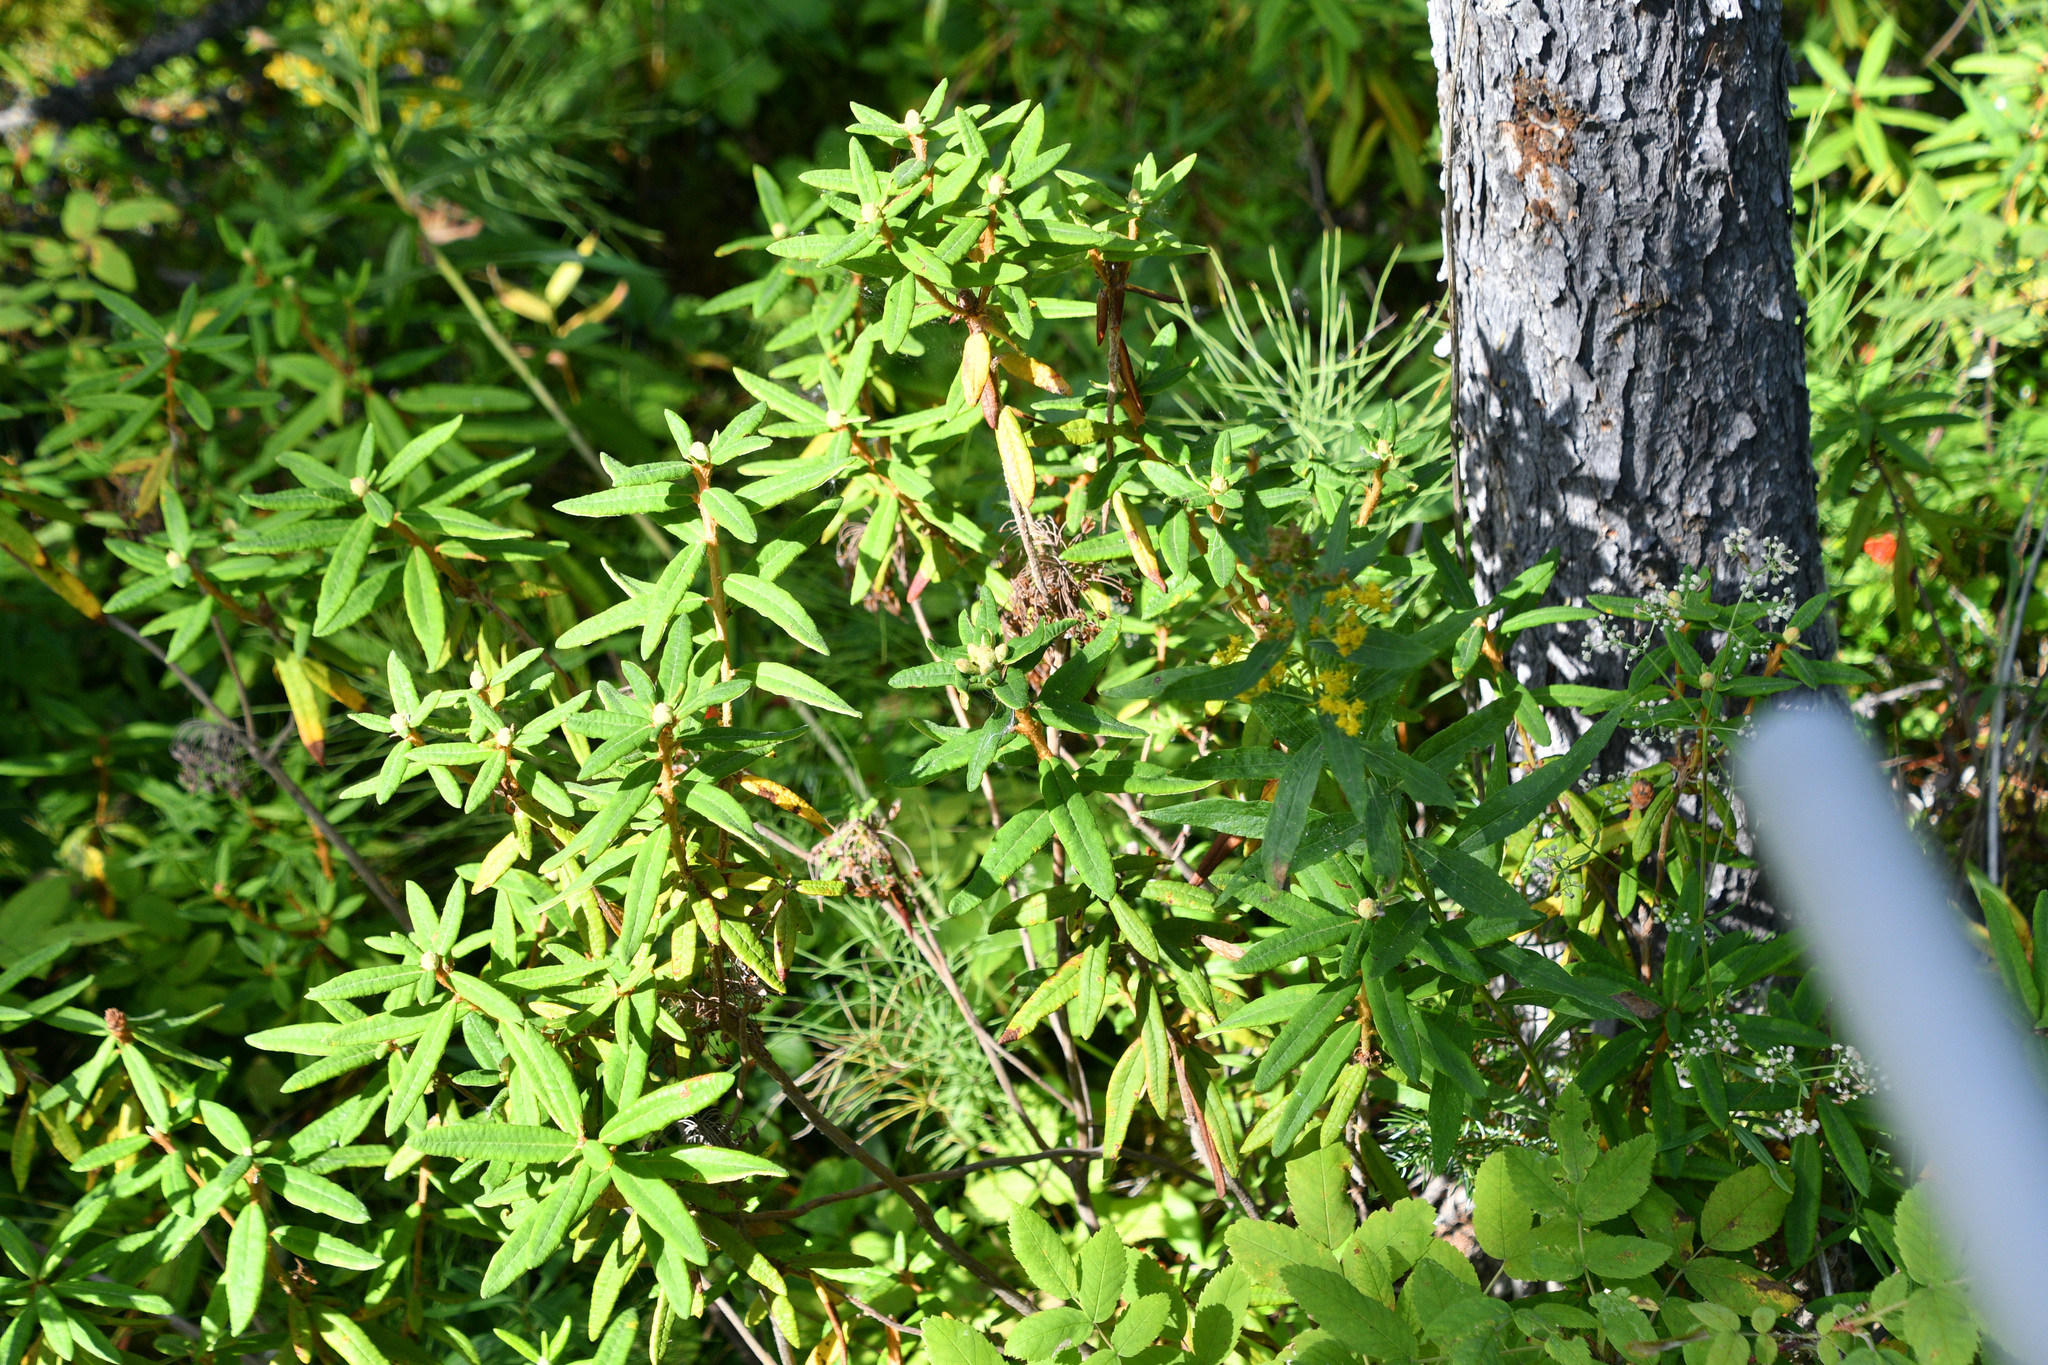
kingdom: Plantae
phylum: Tracheophyta
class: Magnoliopsida
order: Ericales
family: Ericaceae
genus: Rhododendron
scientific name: Rhododendron groenlandicum
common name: Bog labrador tea
